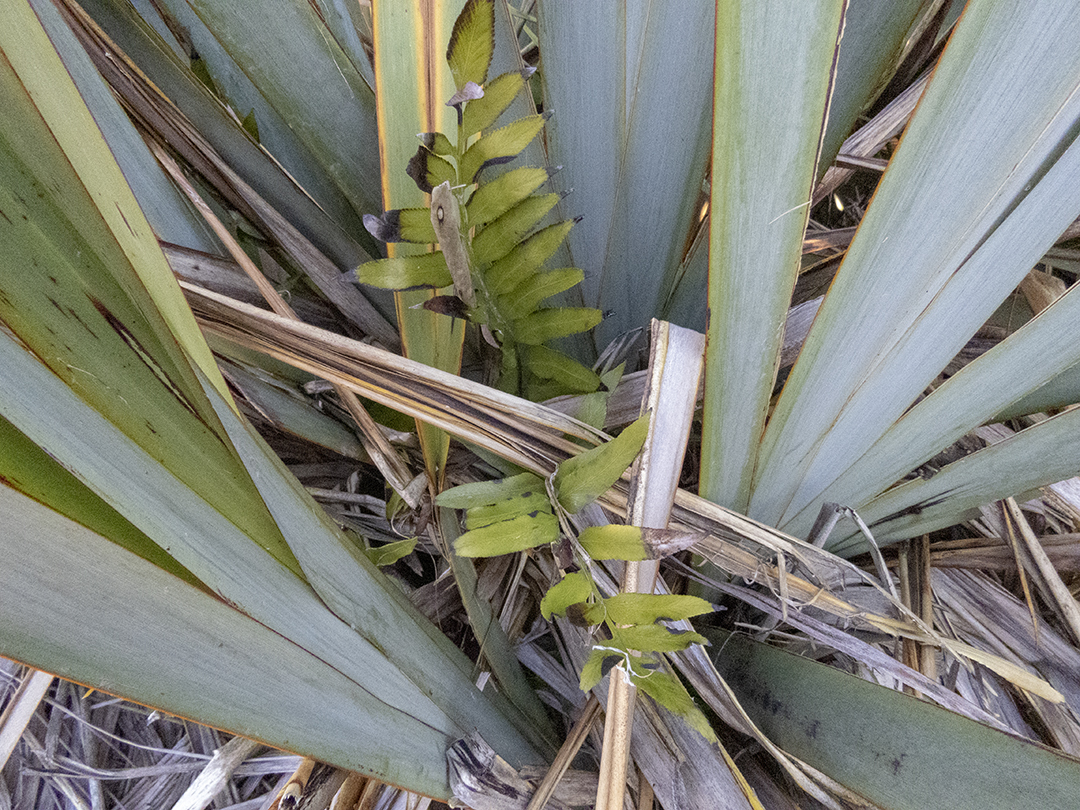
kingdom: Plantae
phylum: Tracheophyta
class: Polypodiopsida
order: Polypodiales
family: Aspleniaceae
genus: Asplenium
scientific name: Asplenium obtusatum
